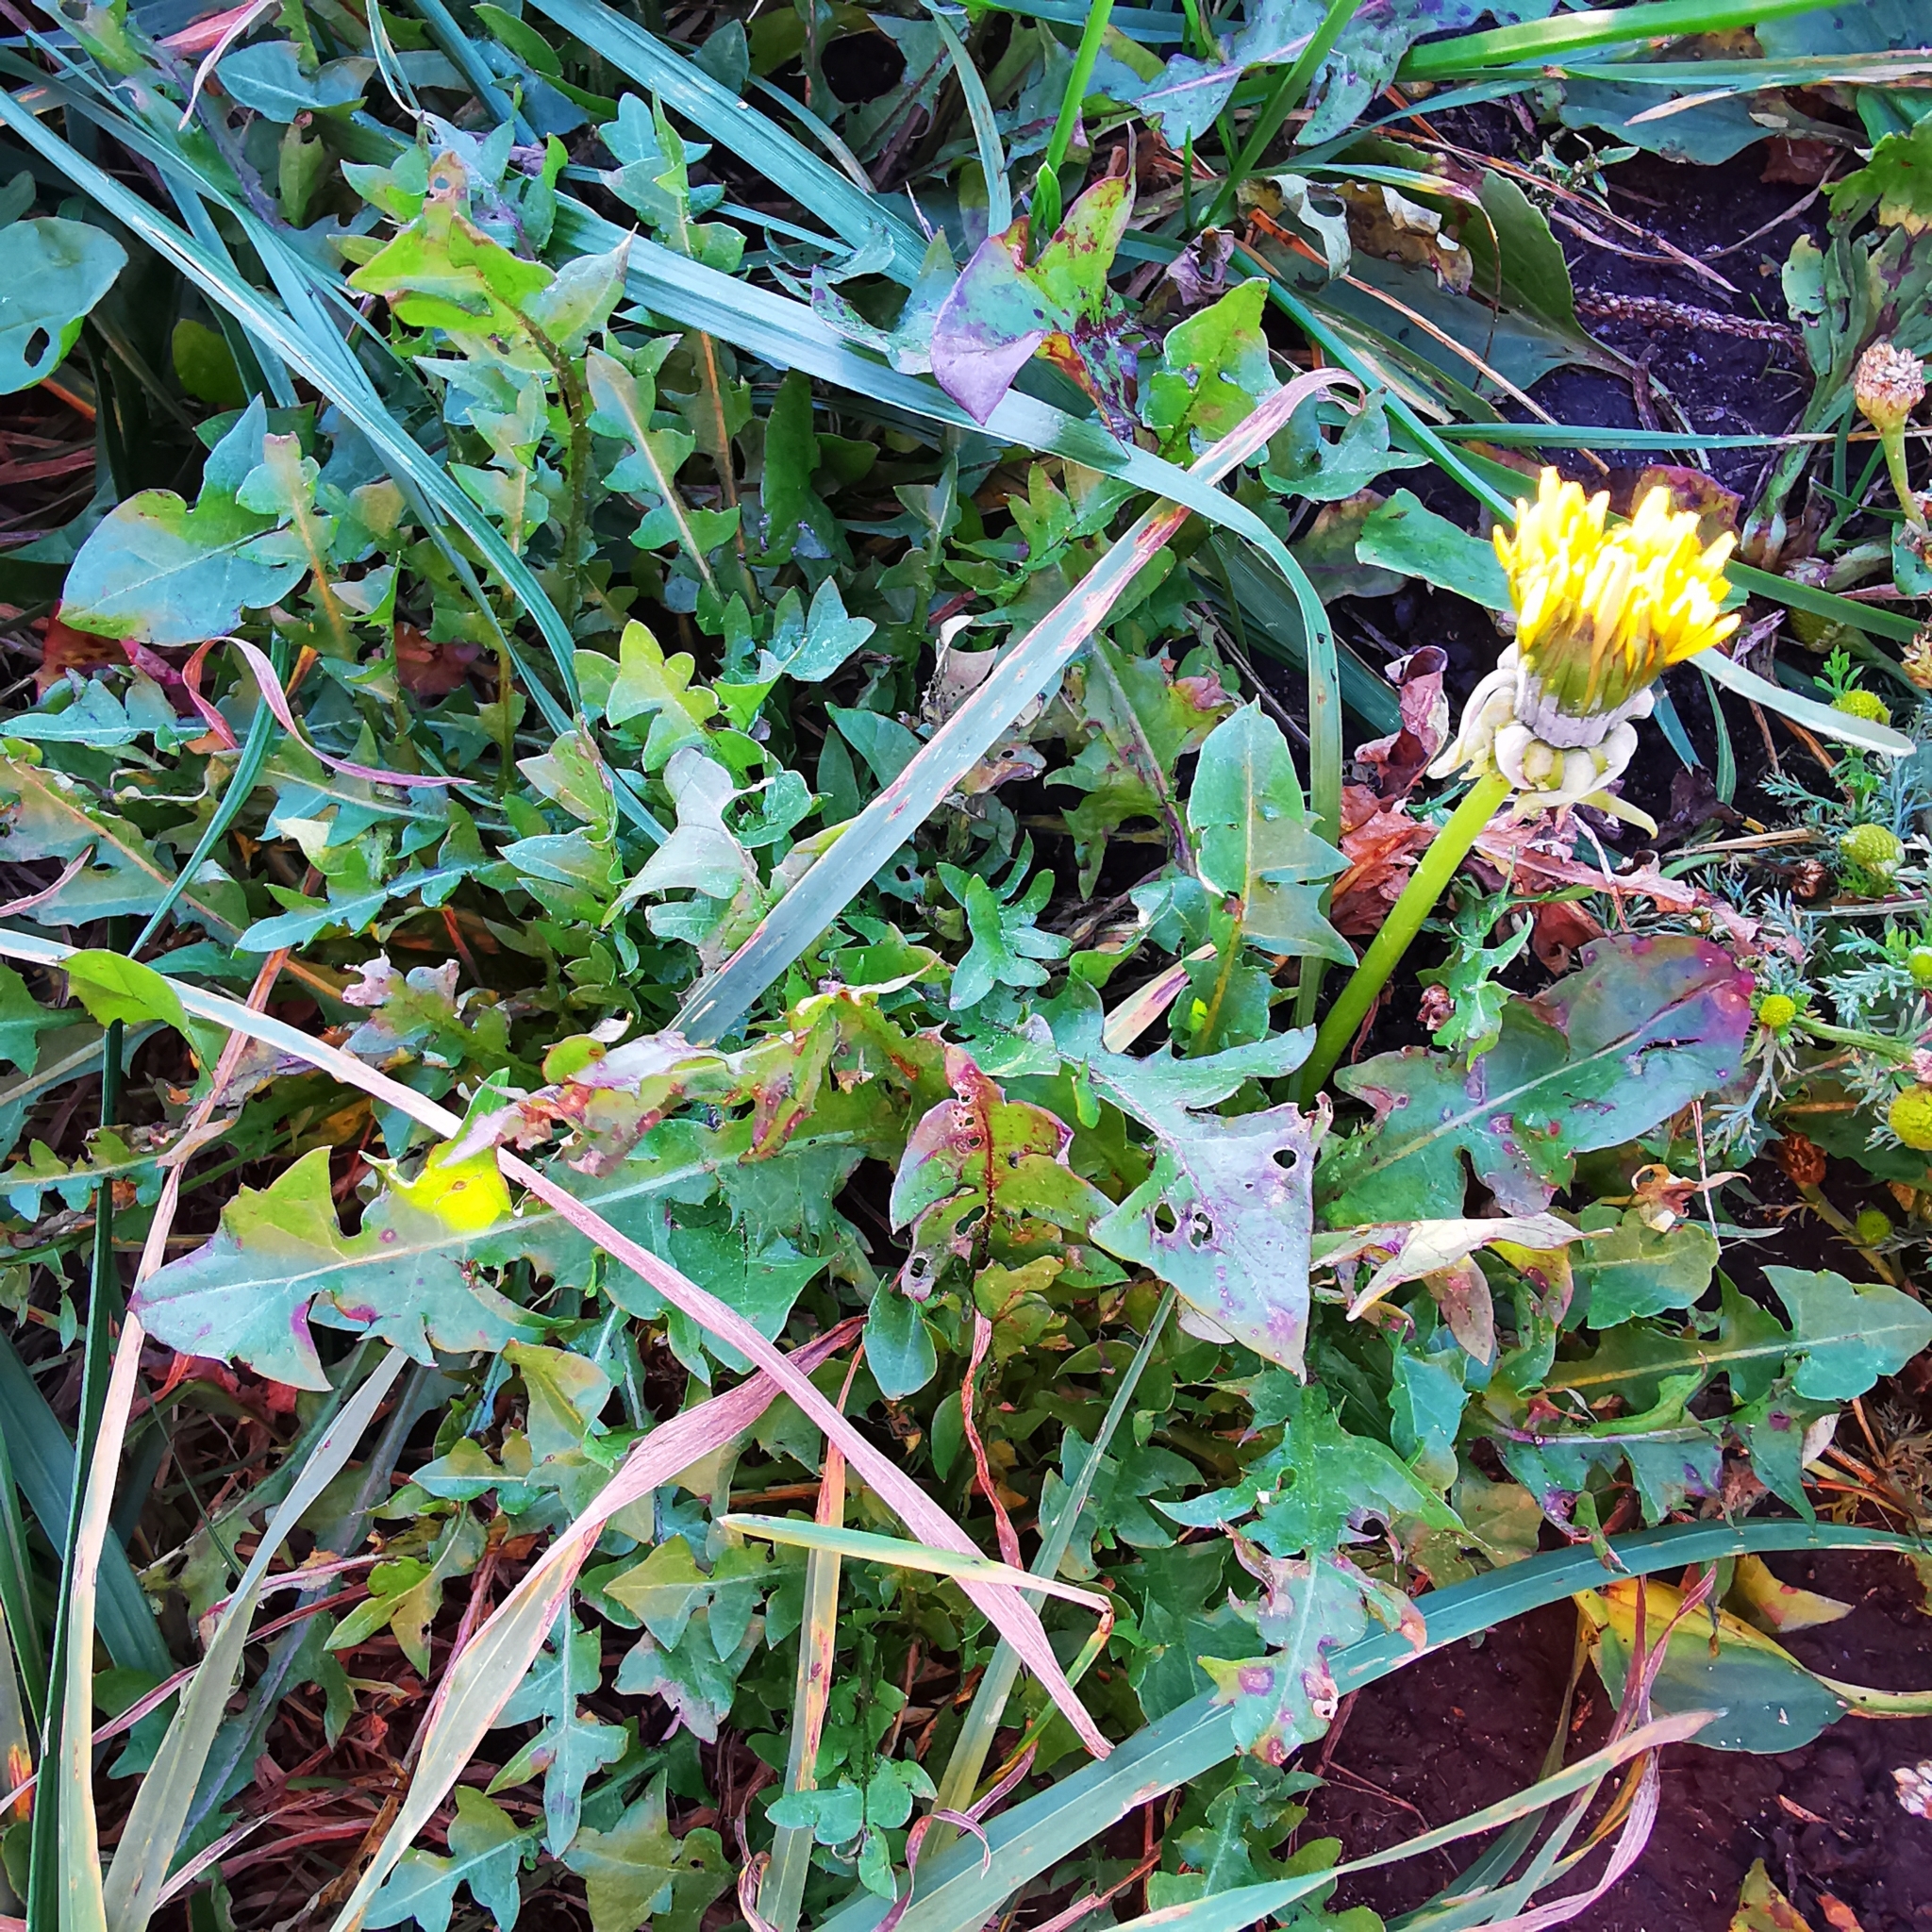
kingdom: Plantae
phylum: Tracheophyta
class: Magnoliopsida
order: Asterales
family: Asteraceae
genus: Taraxacum
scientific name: Taraxacum officinale
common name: Common dandelion
